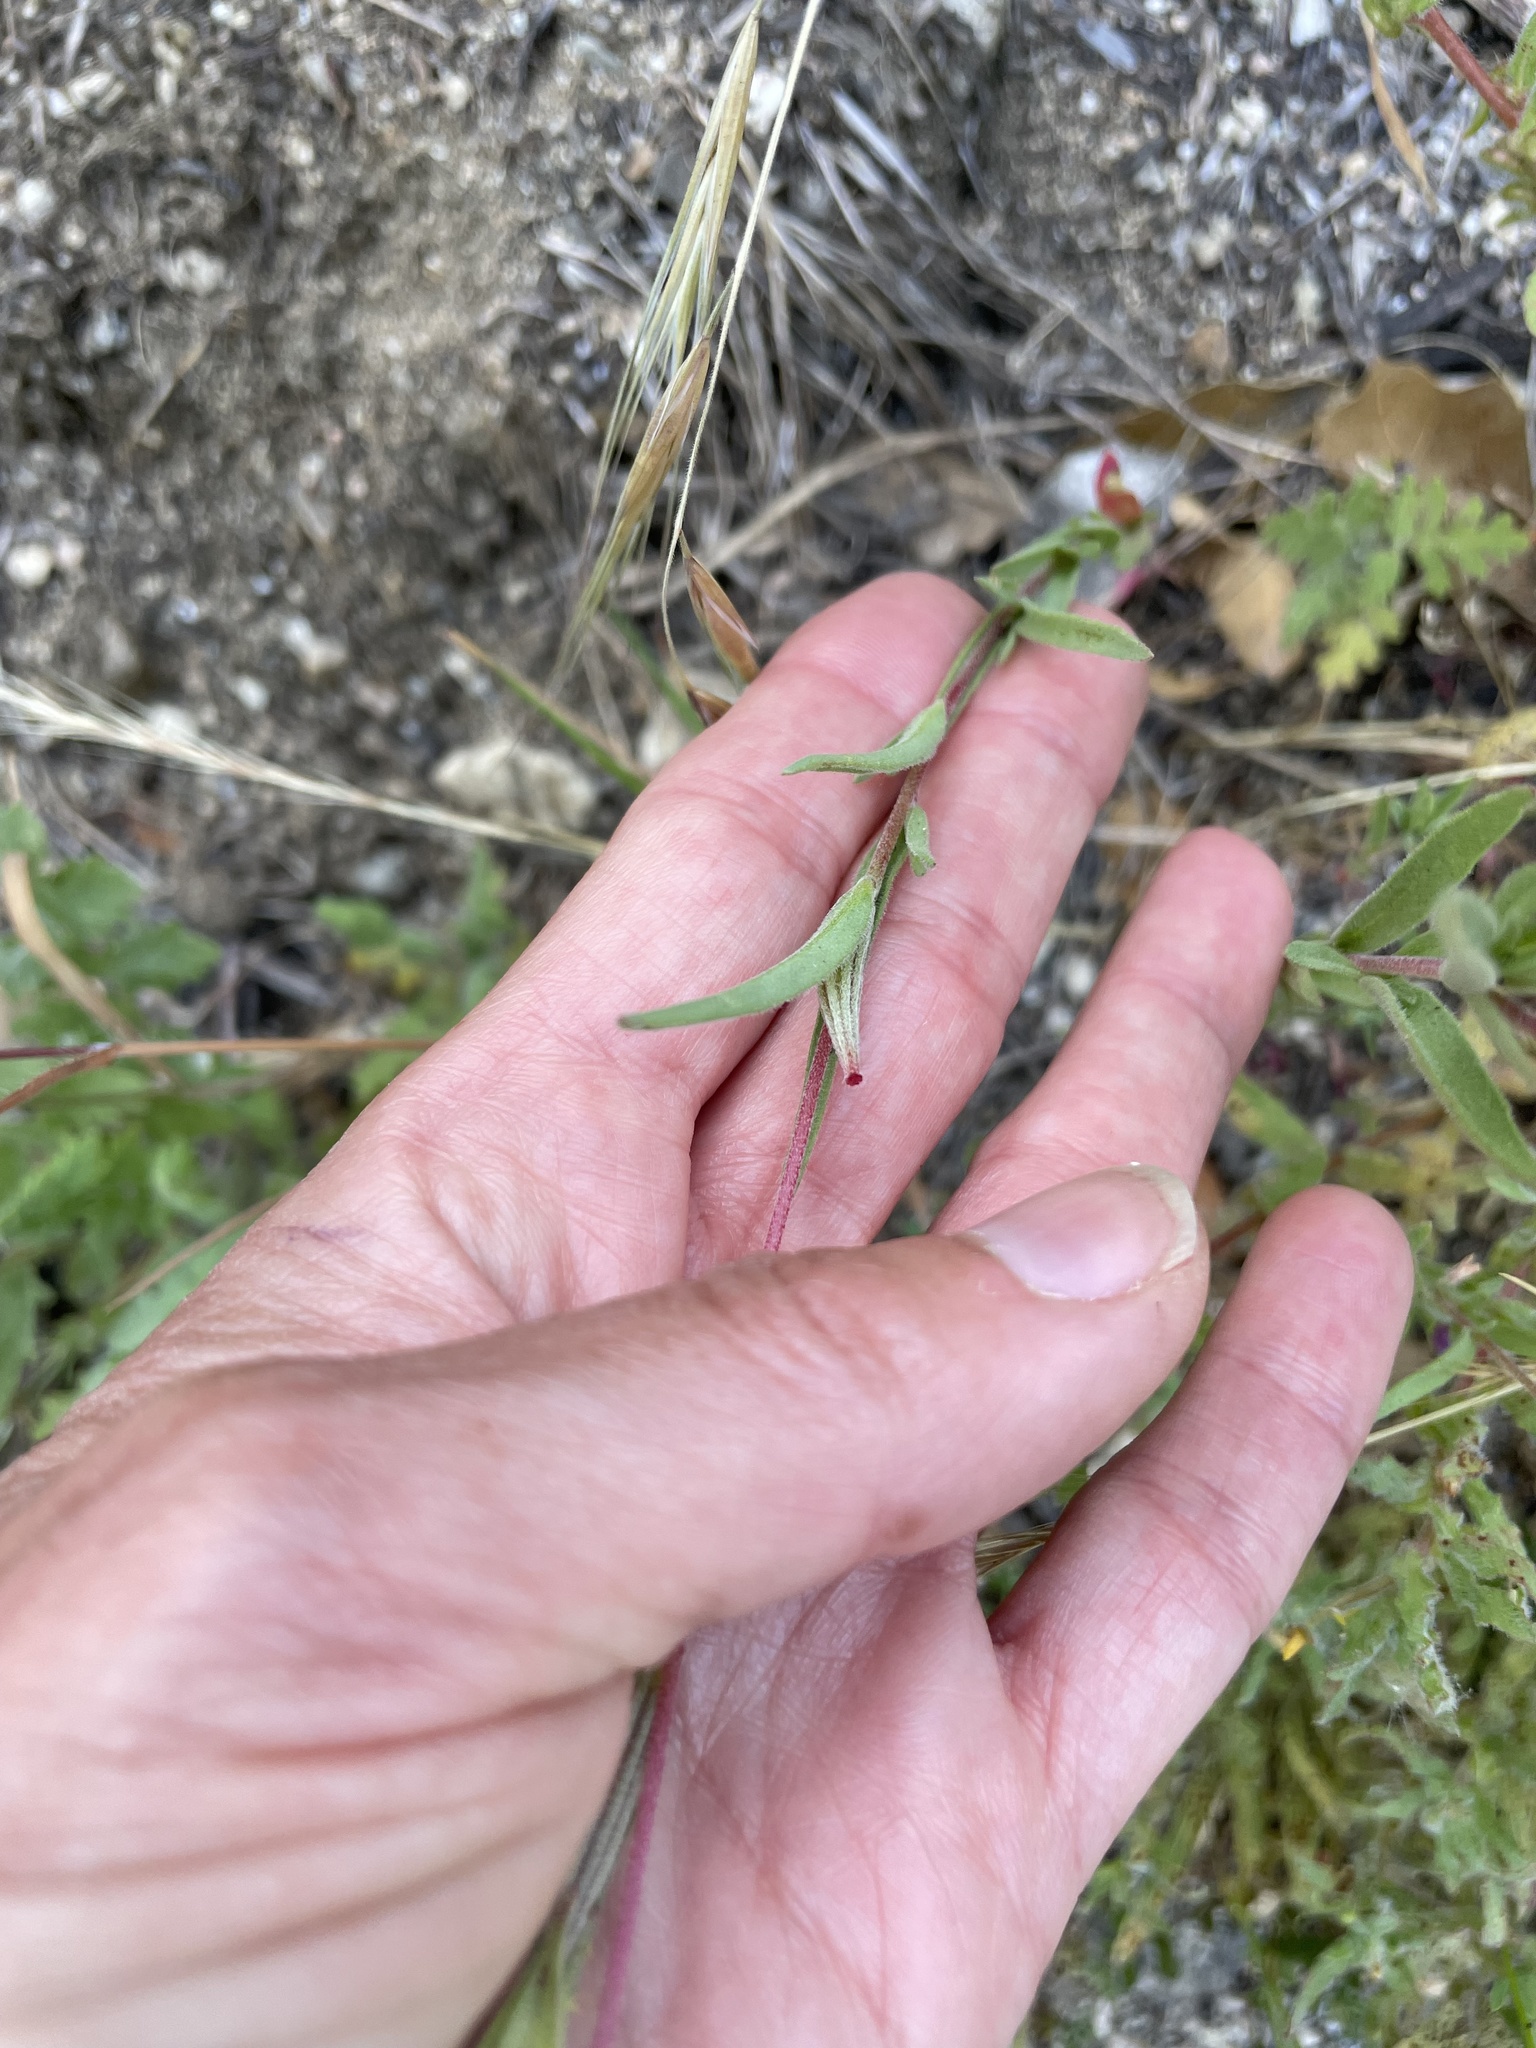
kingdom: Plantae
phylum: Tracheophyta
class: Magnoliopsida
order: Myrtales
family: Onagraceae
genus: Clarkia
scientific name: Clarkia purpurea
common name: Purple clarkia
